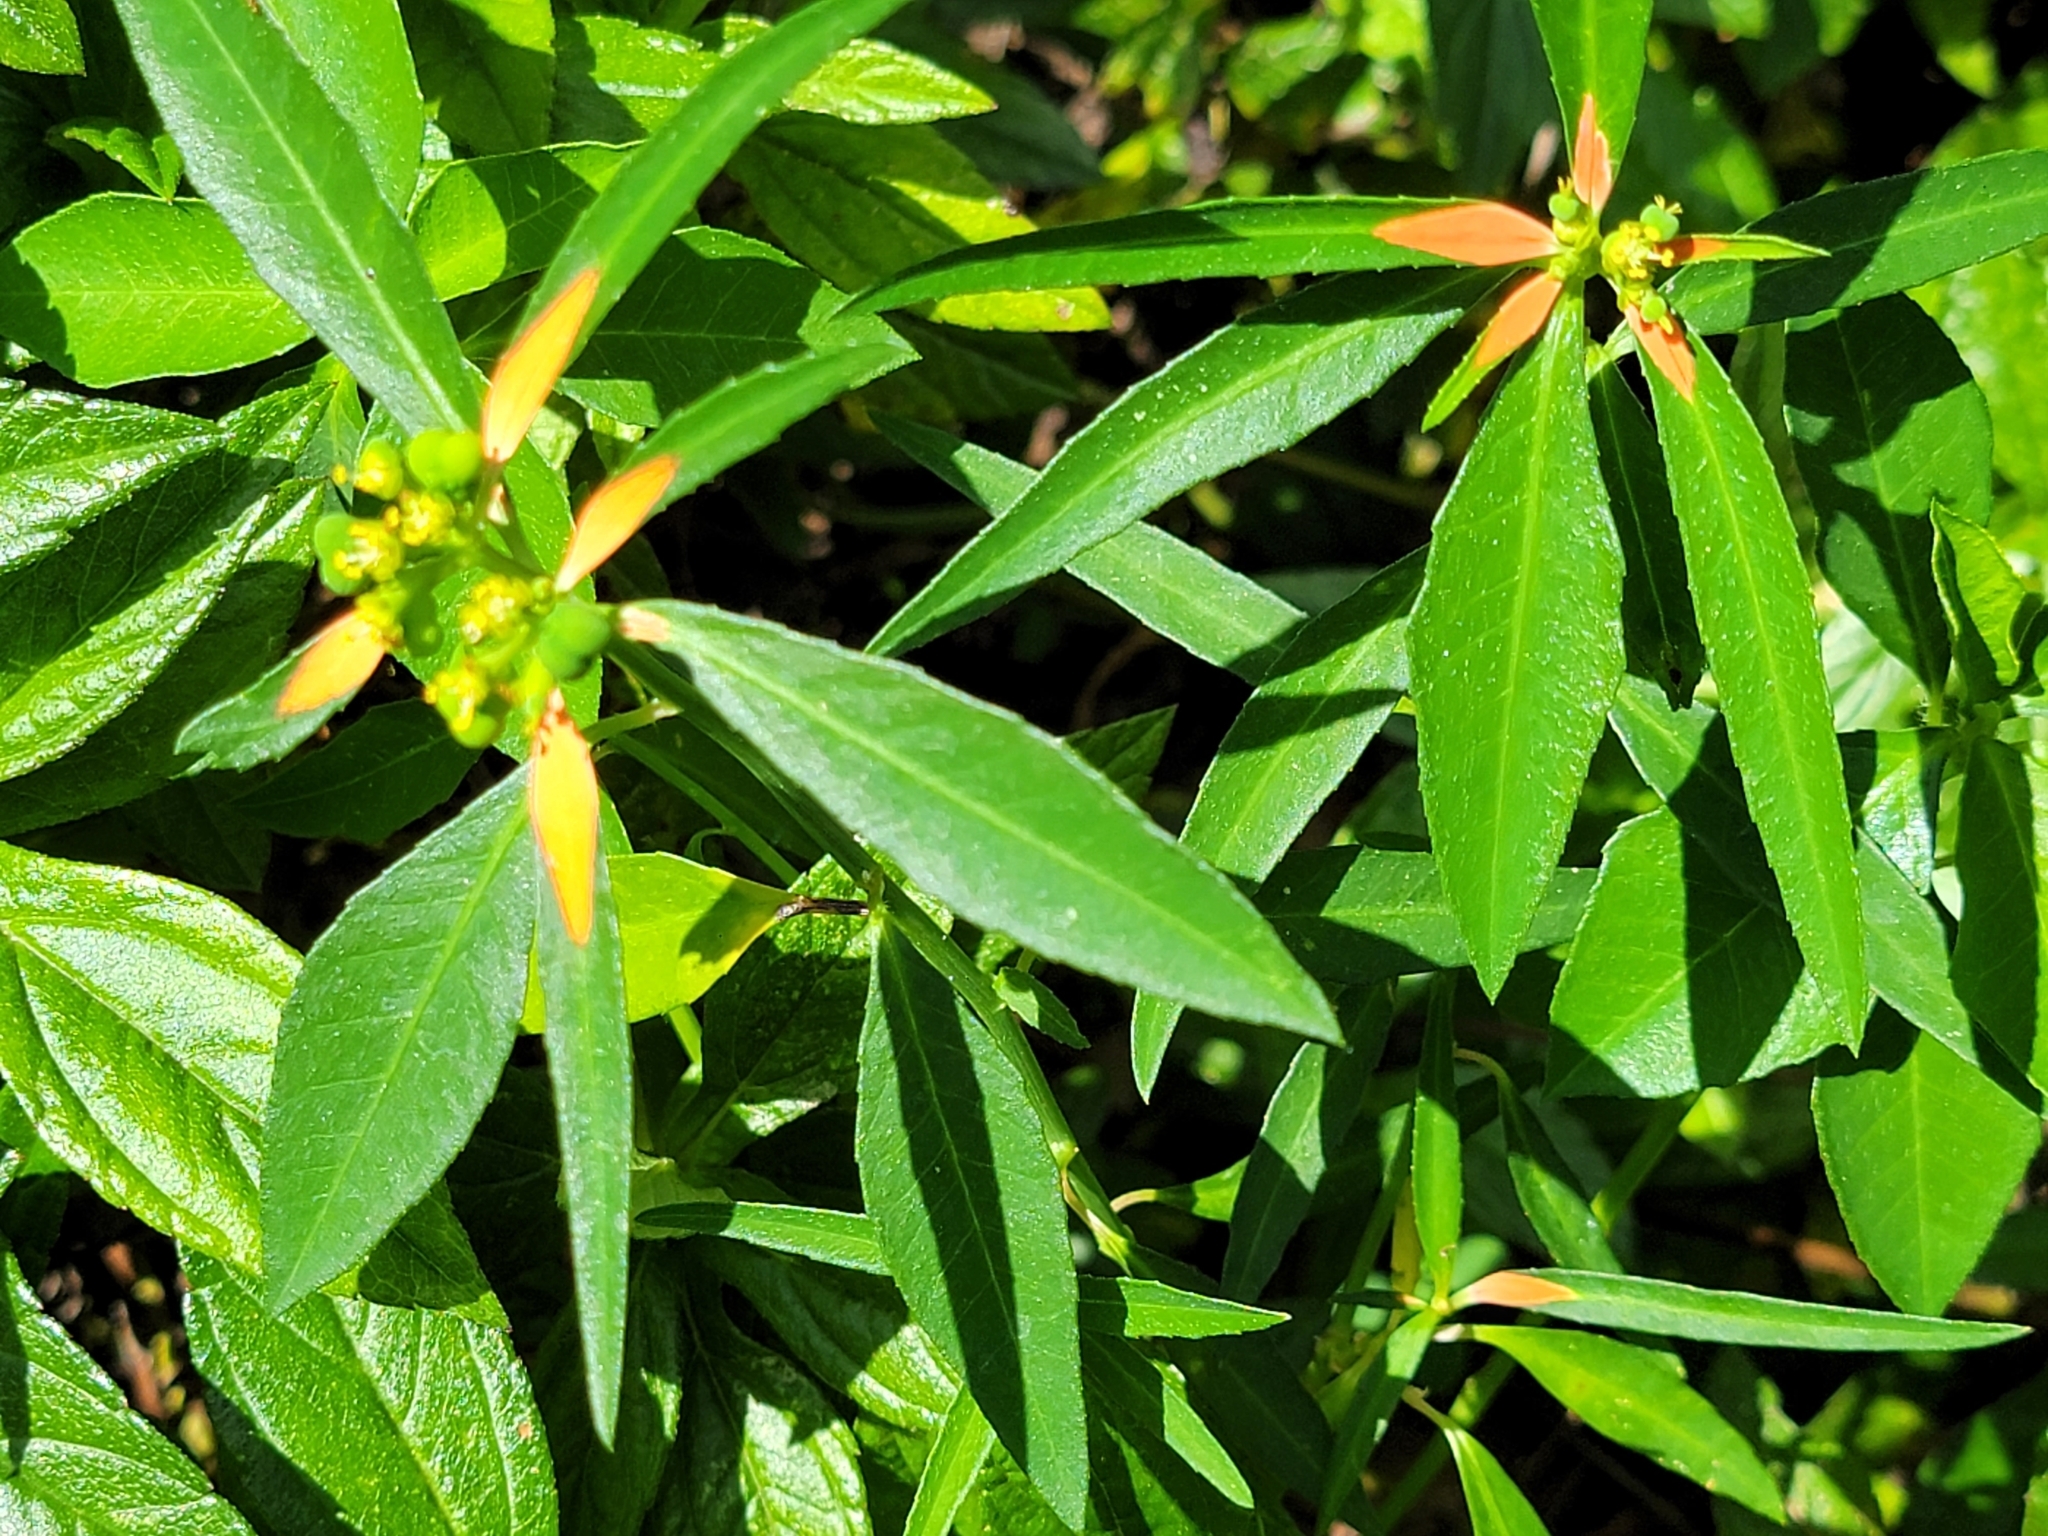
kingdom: Plantae
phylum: Tracheophyta
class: Magnoliopsida
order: Malpighiales
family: Euphorbiaceae
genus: Euphorbia
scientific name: Euphorbia heterophylla
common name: Mexican fireplant
